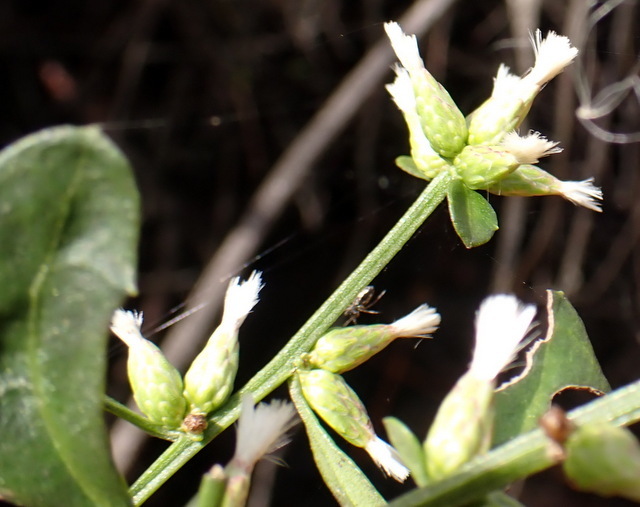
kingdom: Plantae
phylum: Tracheophyta
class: Magnoliopsida
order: Asterales
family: Asteraceae
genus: Baccharis
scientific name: Baccharis glomeruliflora
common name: Silverling groundsel bush
